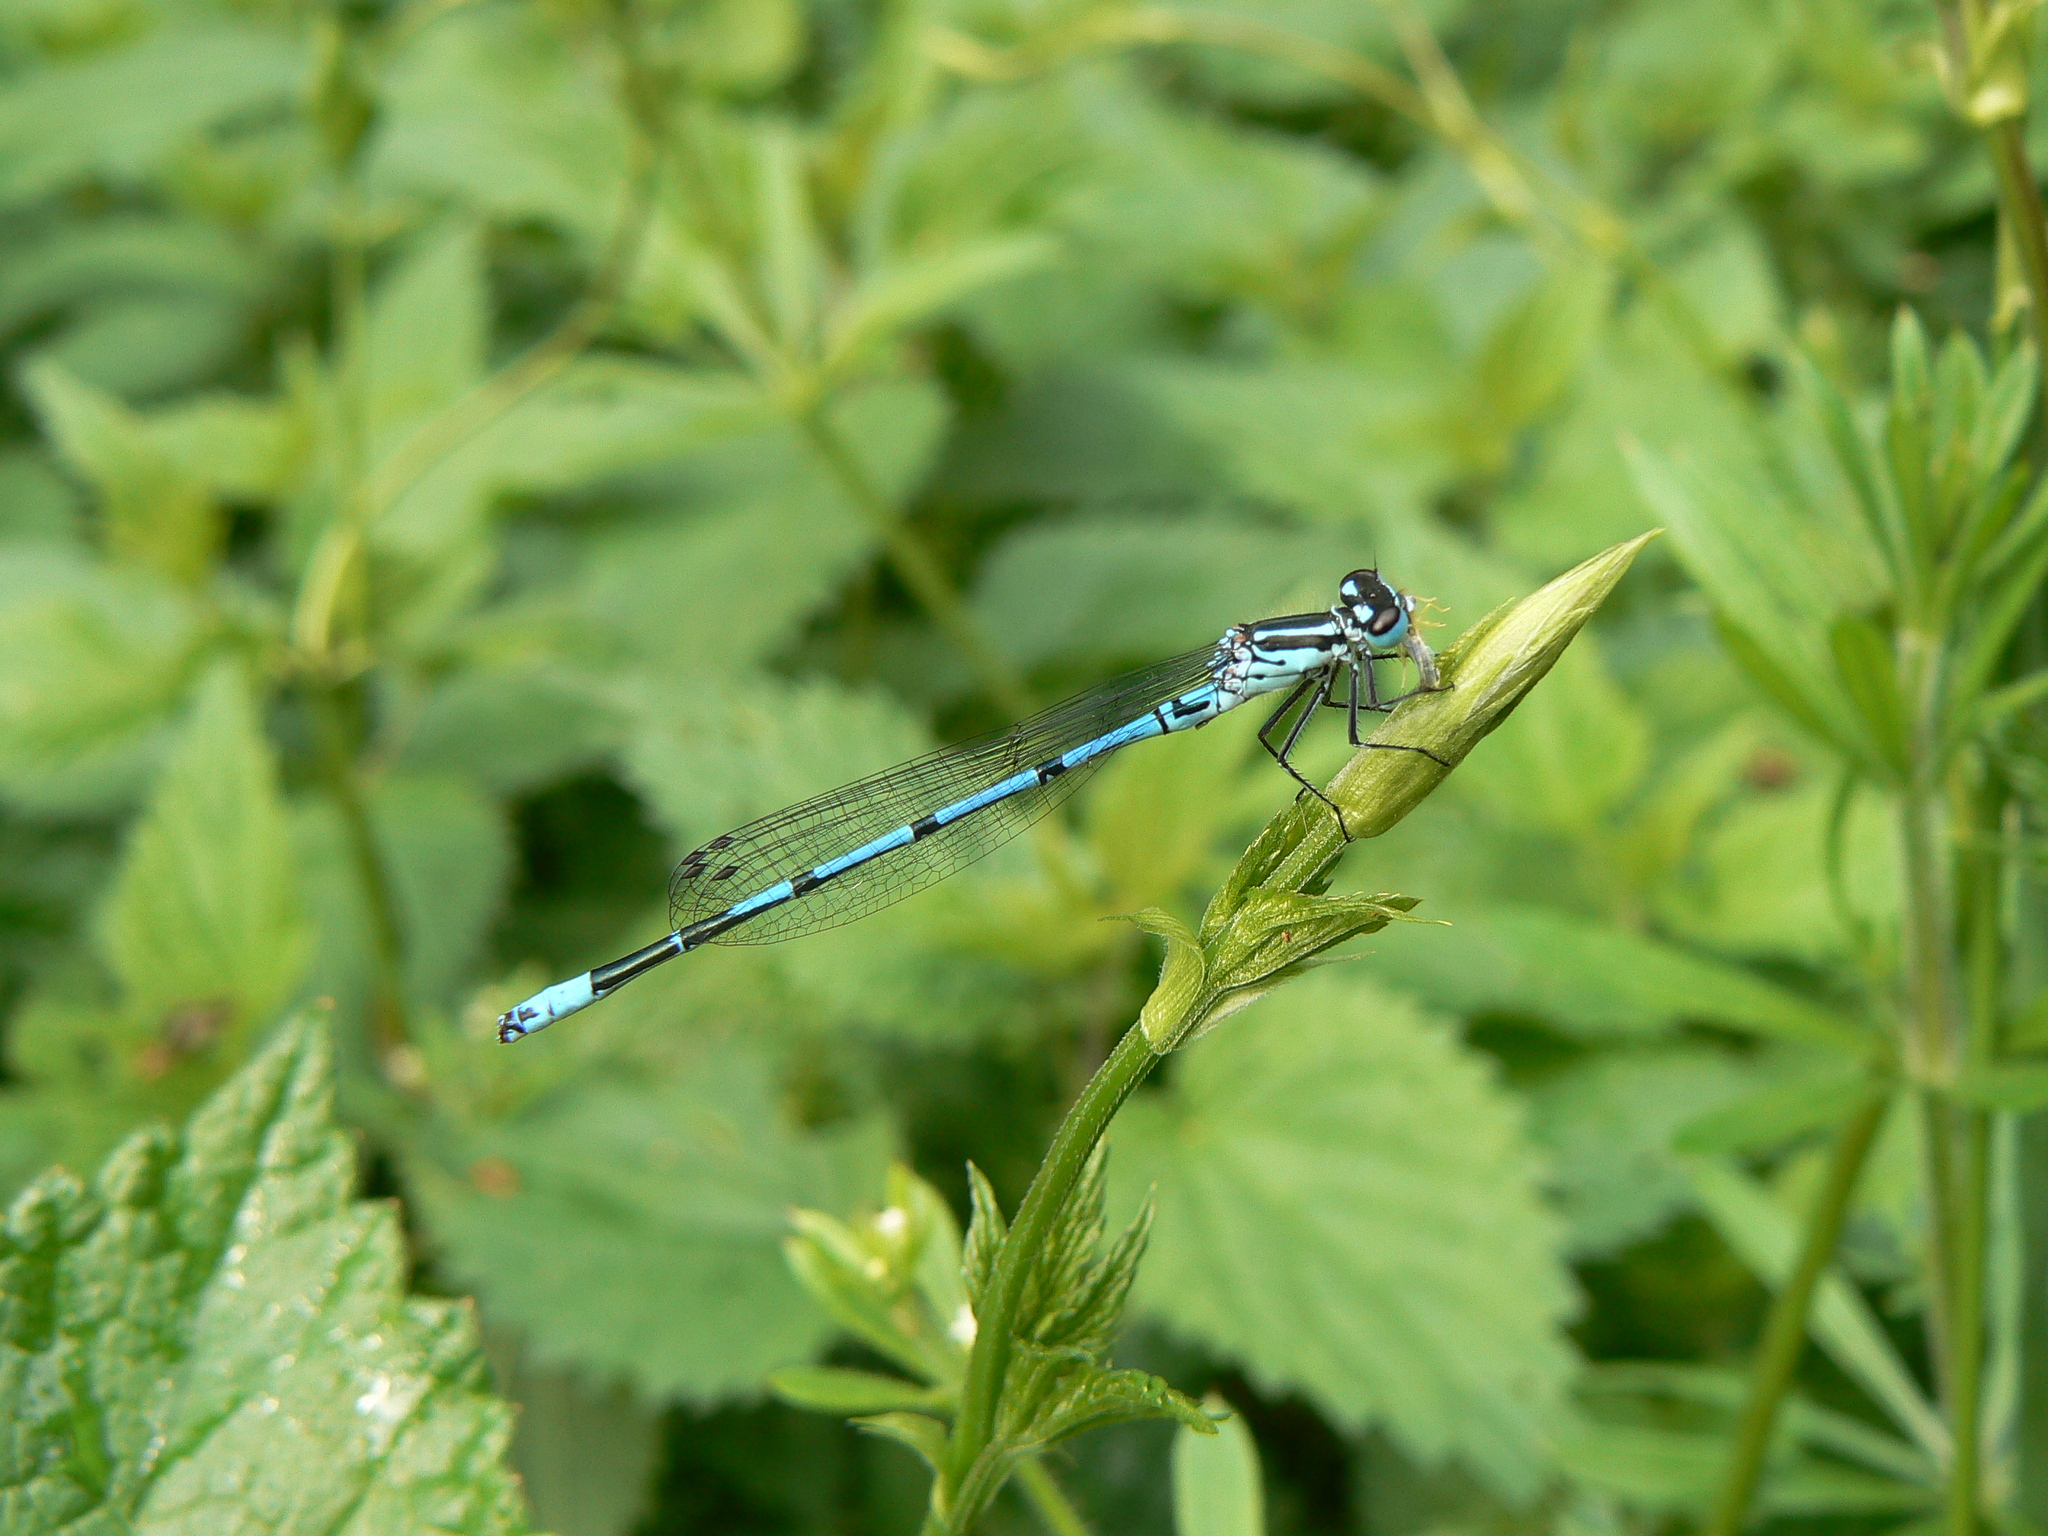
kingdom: Animalia
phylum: Arthropoda
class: Insecta
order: Odonata
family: Coenagrionidae
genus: Coenagrion
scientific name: Coenagrion puella
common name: Azure damselfly
